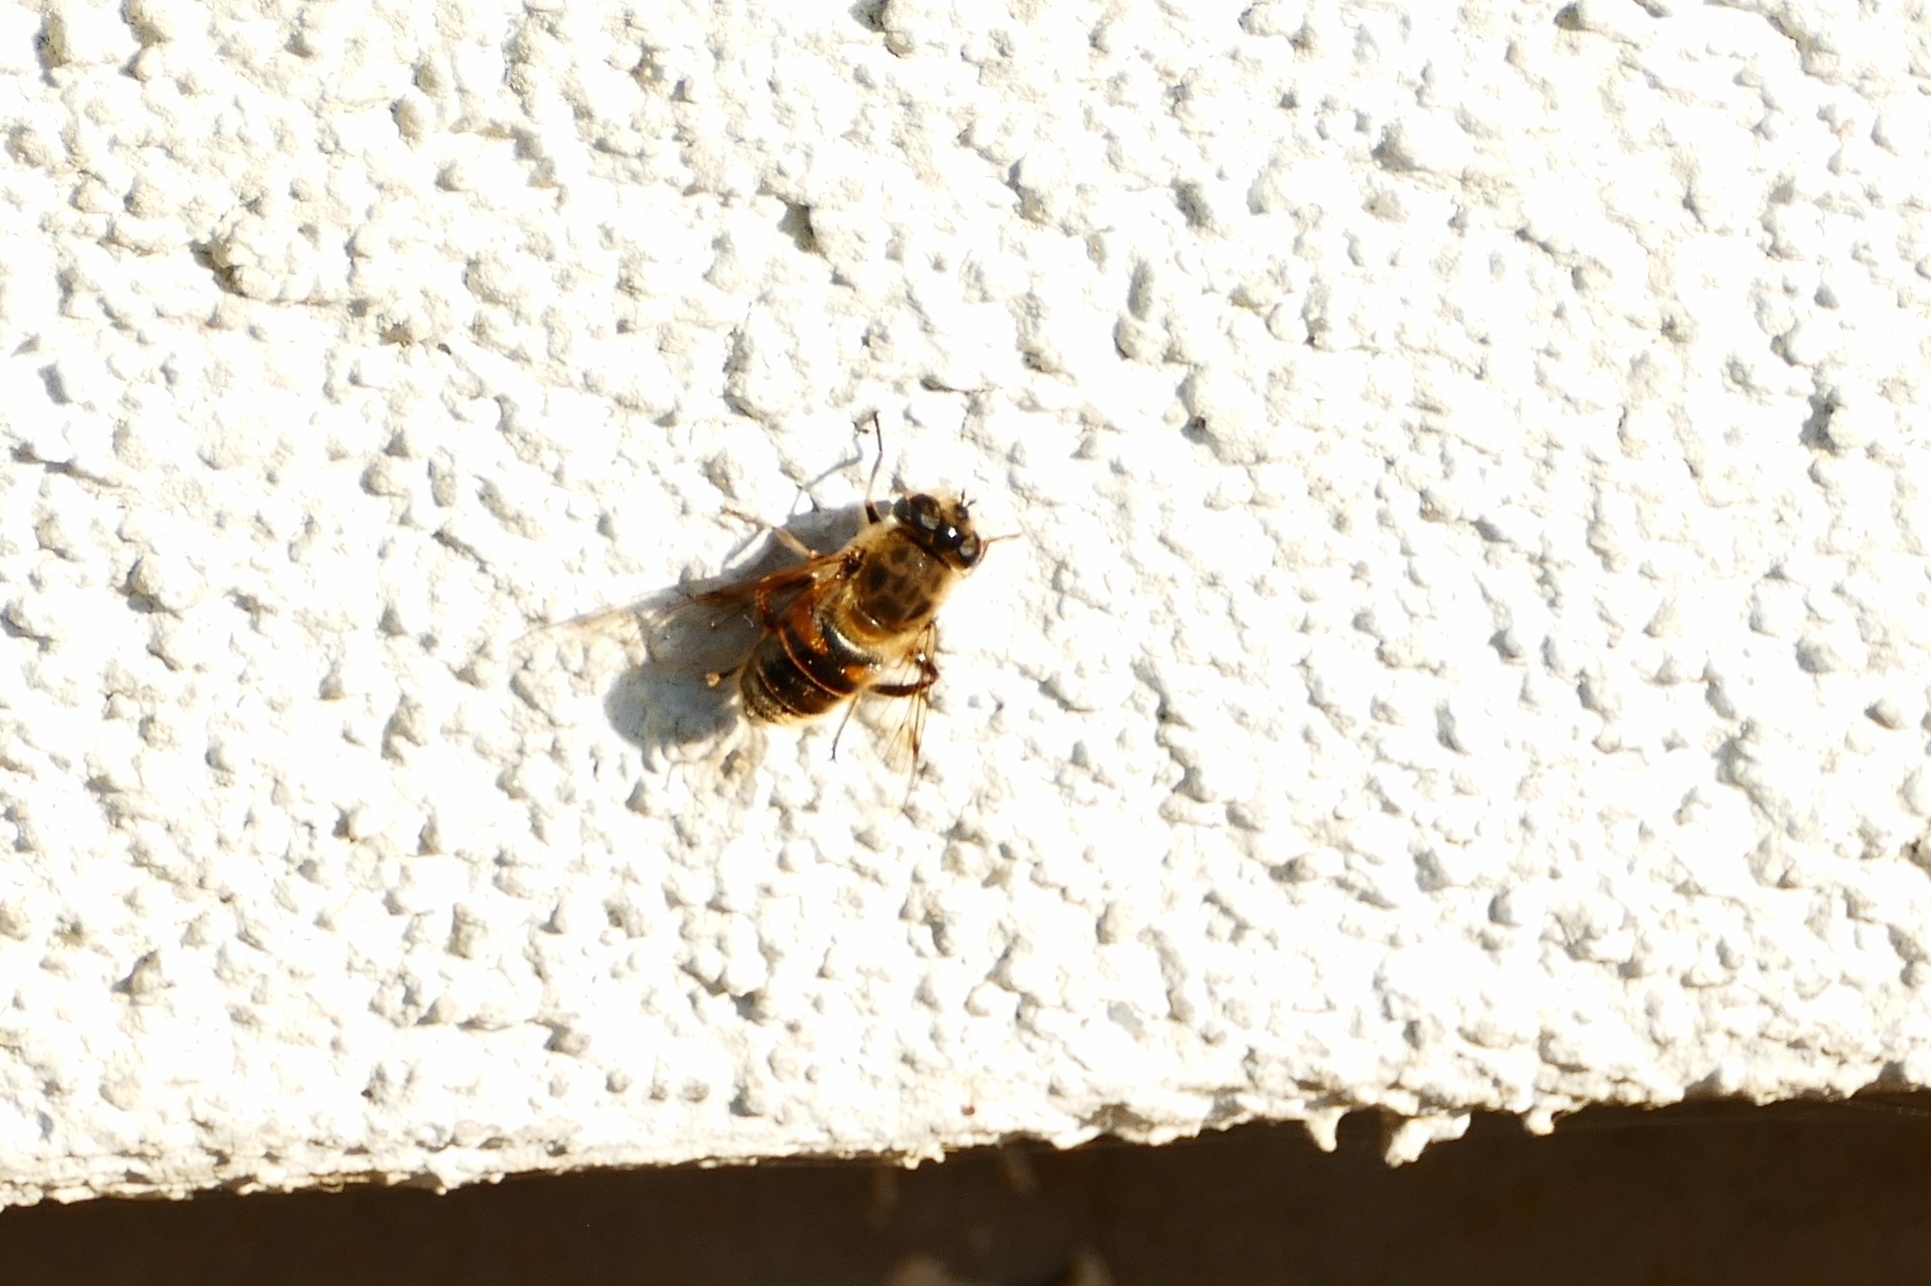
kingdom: Animalia
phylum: Arthropoda
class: Insecta
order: Diptera
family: Syrphidae
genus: Eristalis
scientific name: Eristalis tenax
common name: Drone fly
